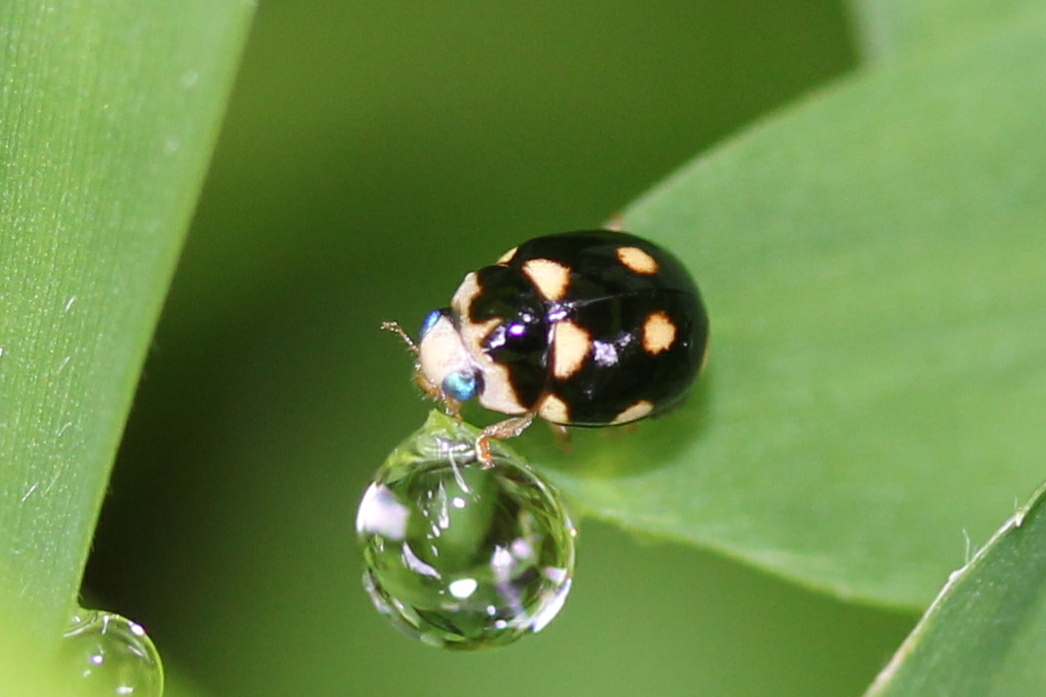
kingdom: Animalia
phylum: Arthropoda
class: Insecta
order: Coleoptera
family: Coccinellidae
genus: Brachiacantha
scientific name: Brachiacantha decempustulata
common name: Ten-spotted spurleg lady beetle
